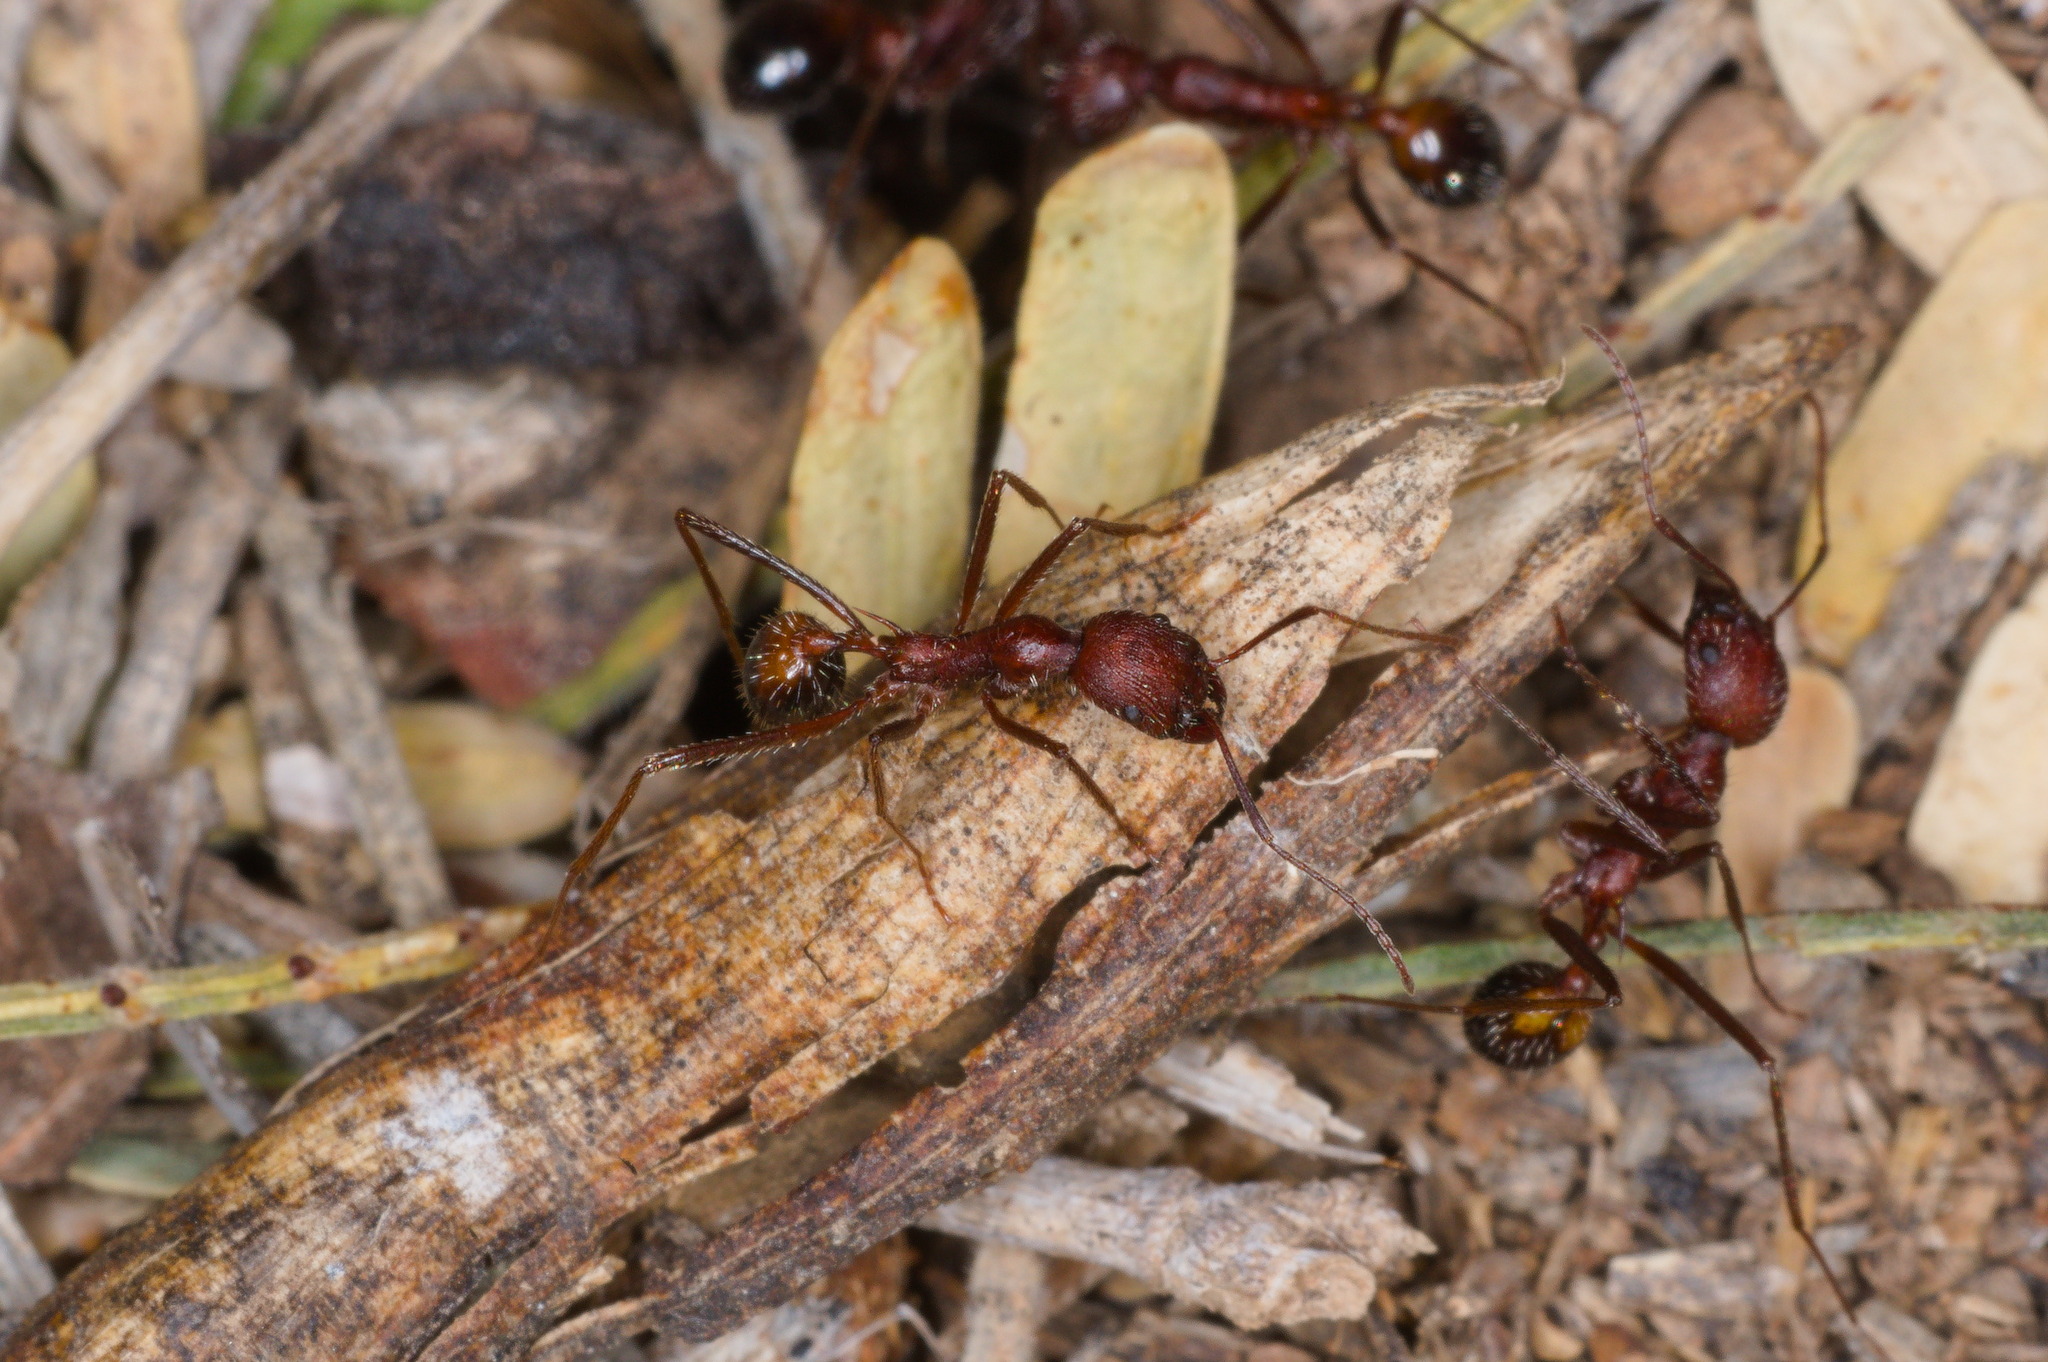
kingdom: Animalia
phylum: Arthropoda
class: Insecta
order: Hymenoptera
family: Formicidae
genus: Novomessor
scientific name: Novomessor albisetosa
